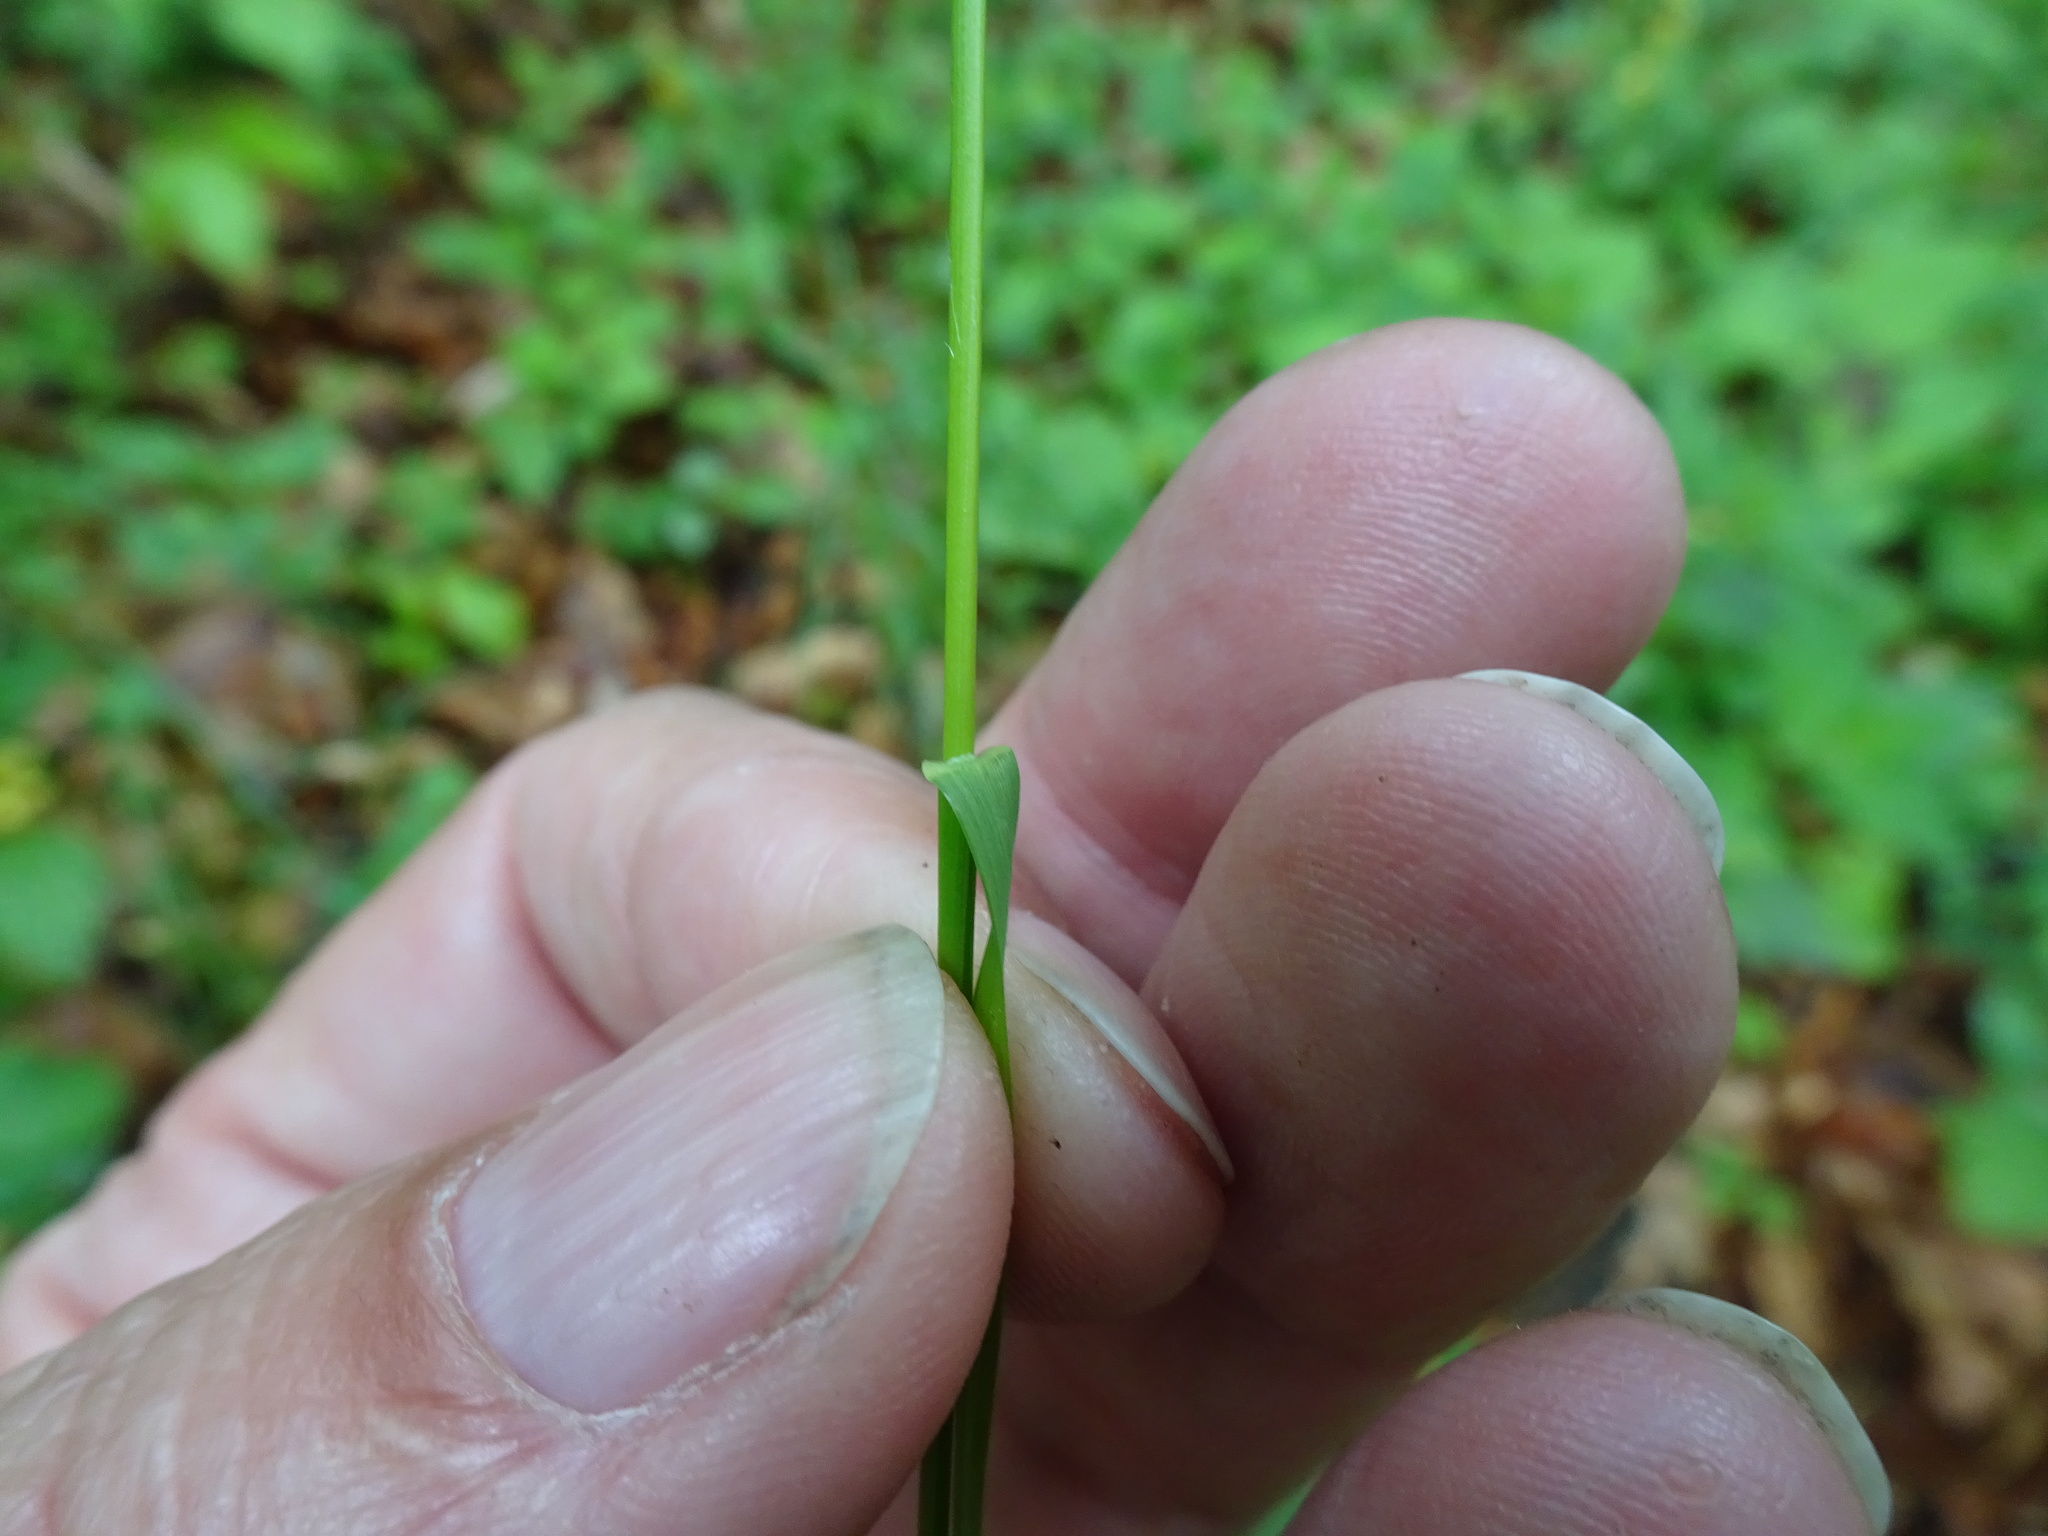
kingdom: Plantae
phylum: Tracheophyta
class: Liliopsida
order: Poales
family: Poaceae
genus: Poa
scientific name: Poa nemoralis
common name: Wood bluegrass
